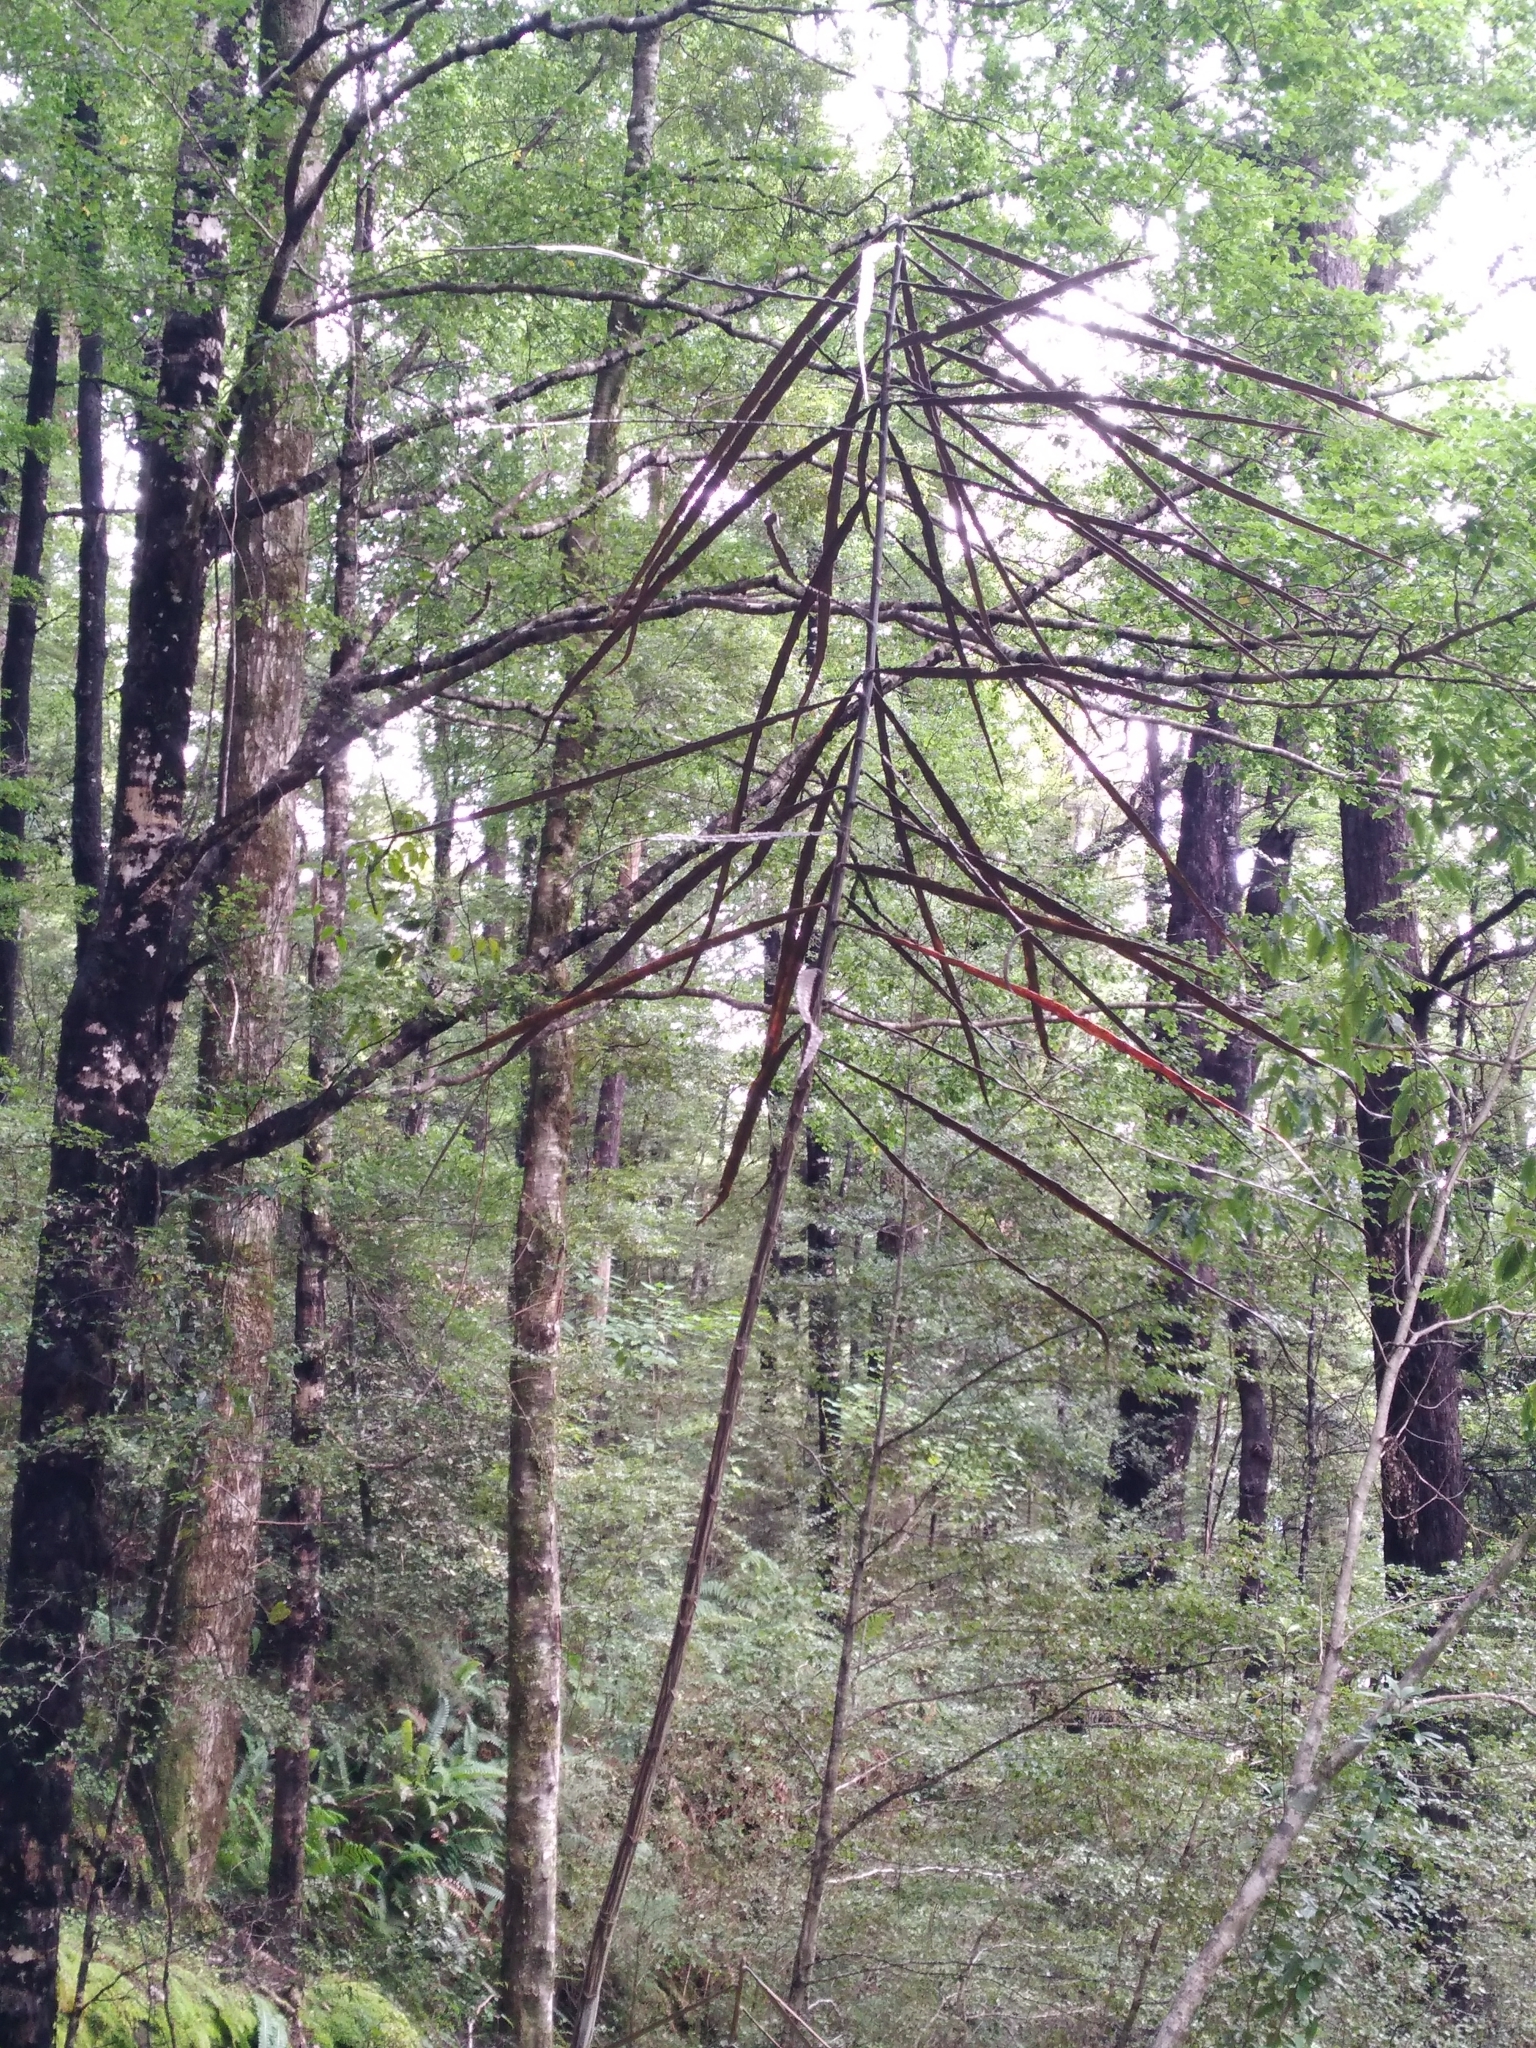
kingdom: Plantae
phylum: Tracheophyta
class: Magnoliopsida
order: Apiales
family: Araliaceae
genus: Pseudopanax
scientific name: Pseudopanax crassifolius
